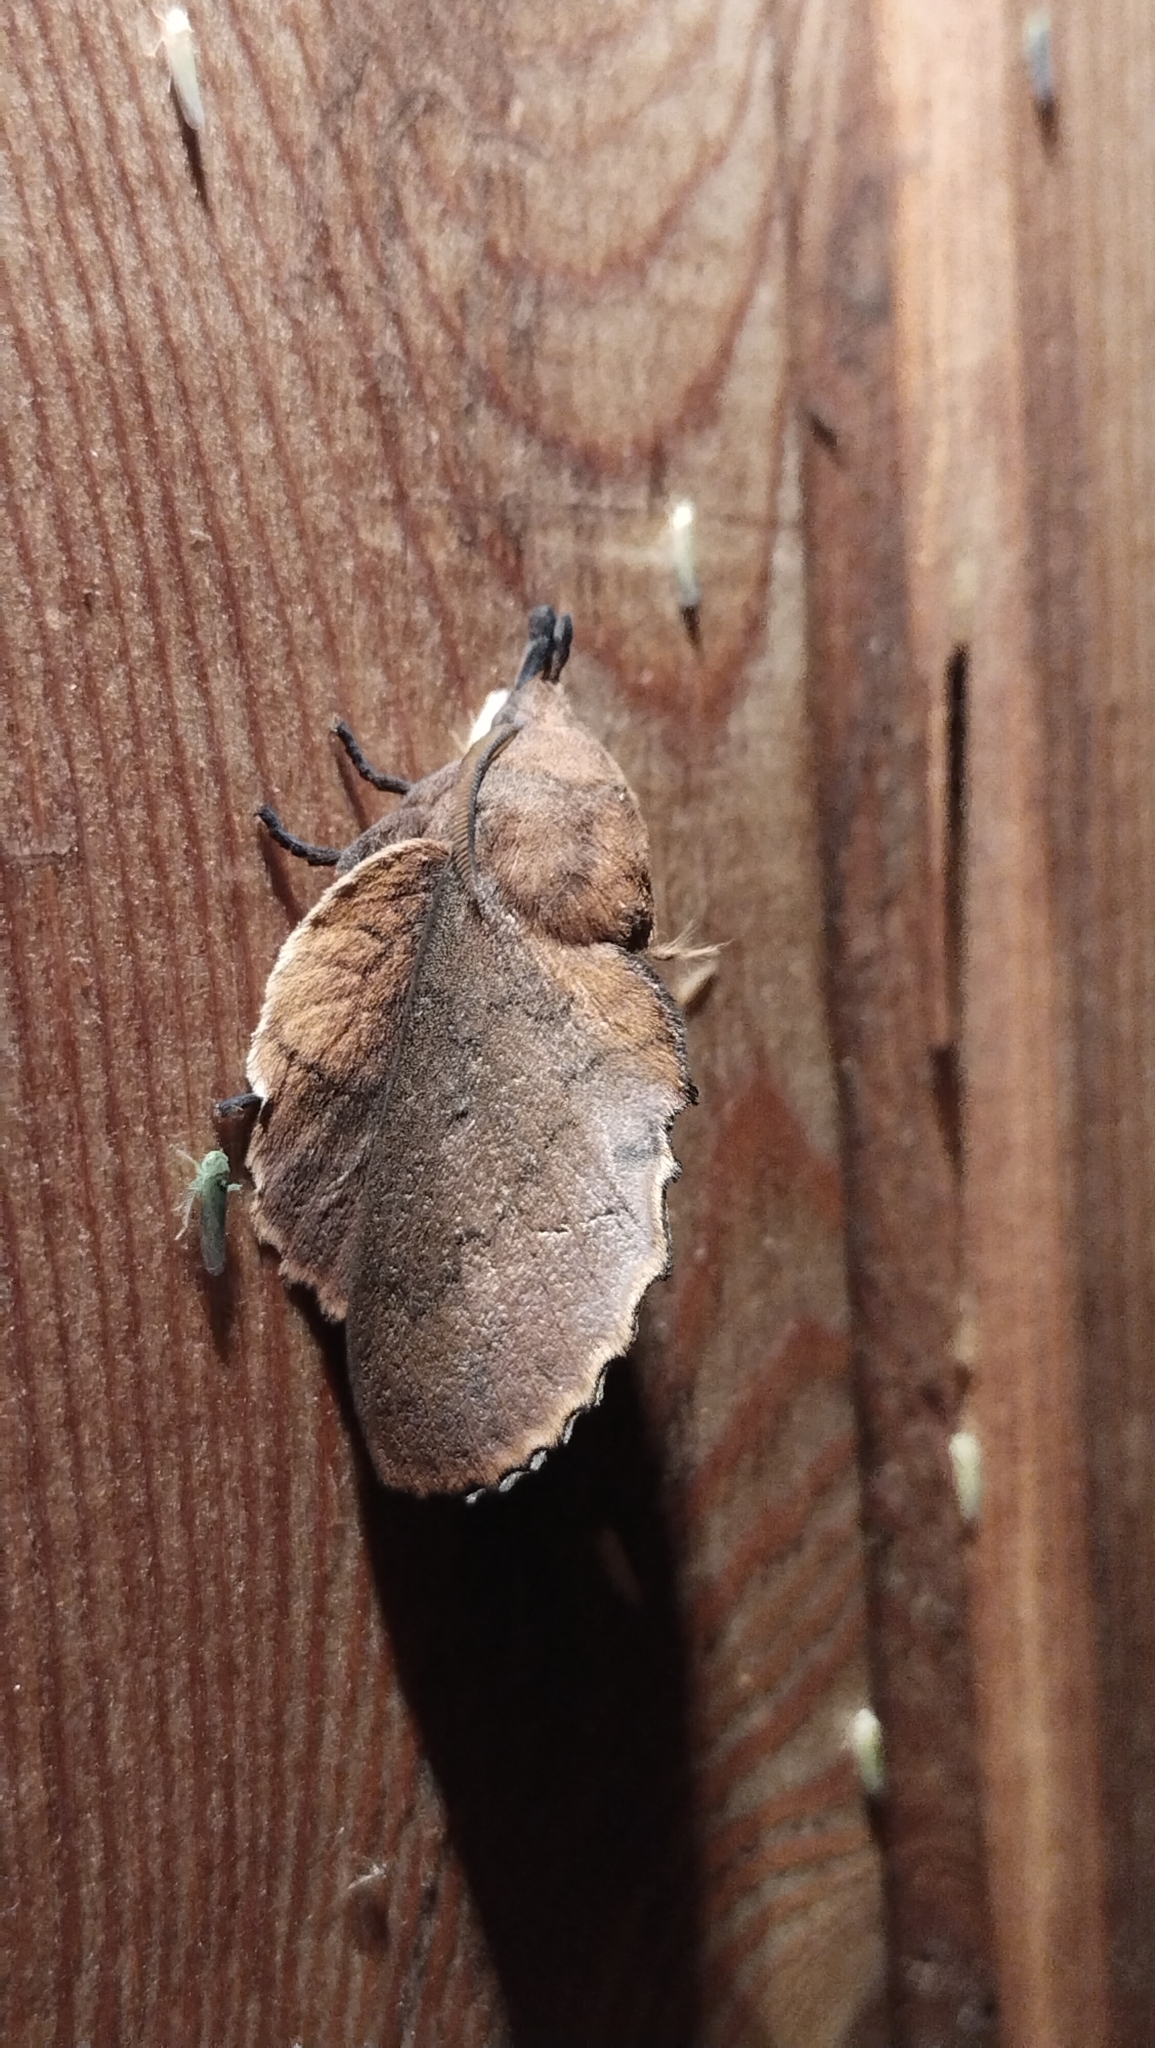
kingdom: Animalia
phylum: Arthropoda
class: Insecta
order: Lepidoptera
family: Lasiocampidae
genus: Gastropacha
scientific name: Gastropacha quercifolia
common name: Lappet
